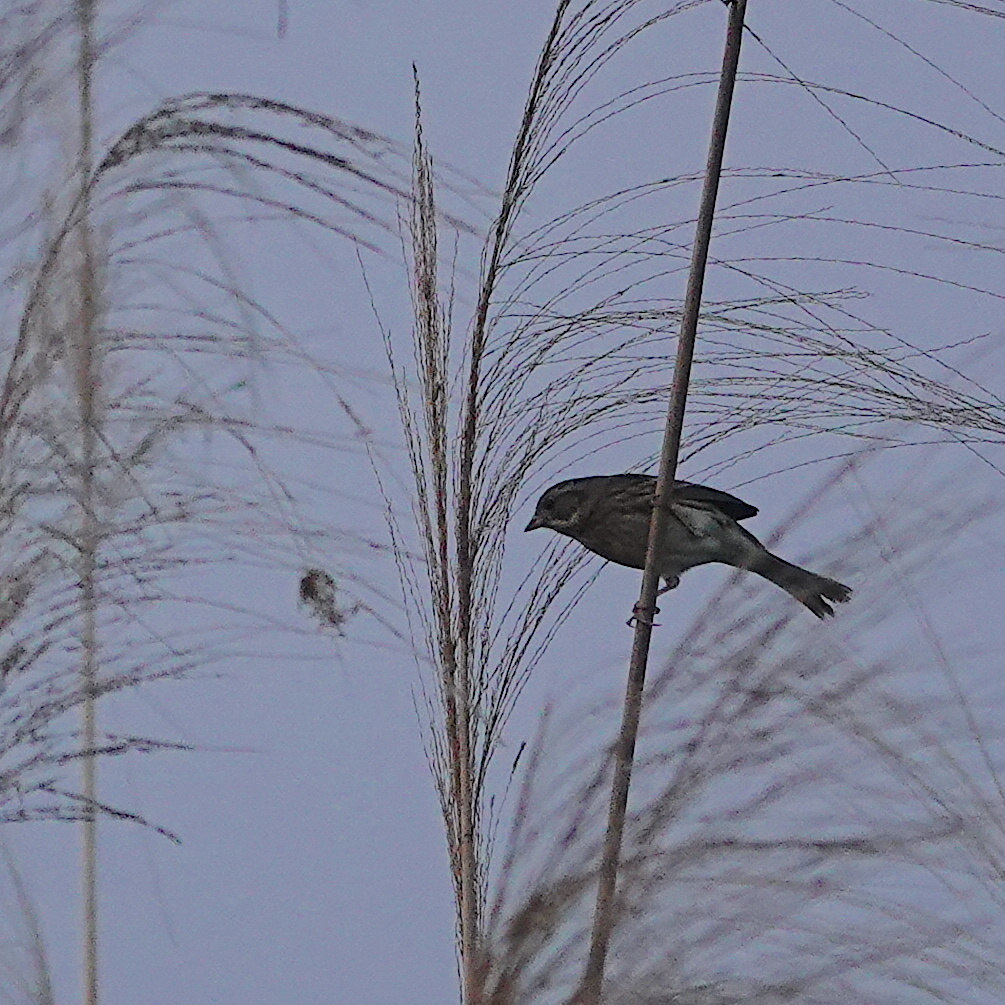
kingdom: Animalia
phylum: Chordata
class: Aves
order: Passeriformes
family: Emberizidae
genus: Emberiza
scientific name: Emberiza spodocephala
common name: Black-faced bunting
